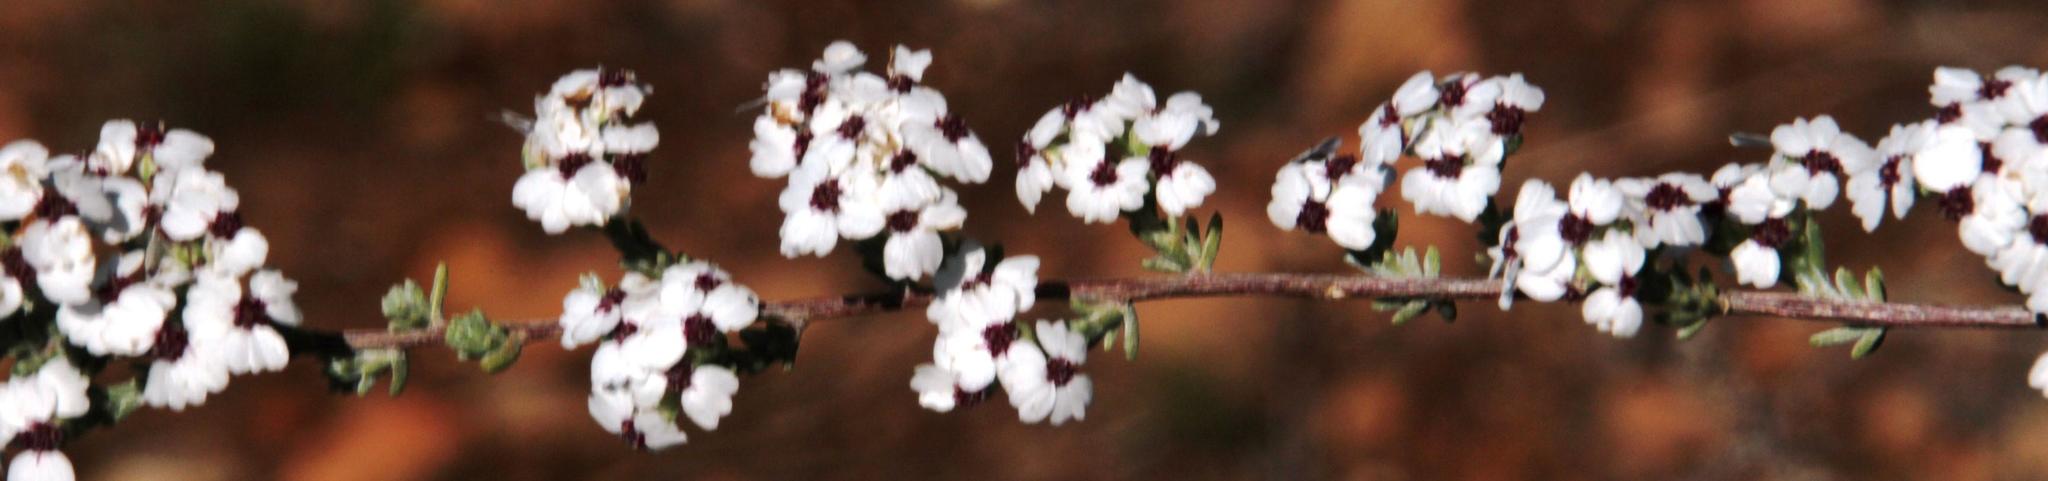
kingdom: Plantae
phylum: Tracheophyta
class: Magnoliopsida
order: Asterales
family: Asteraceae
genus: Eriocephalus
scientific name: Eriocephalus africanus
